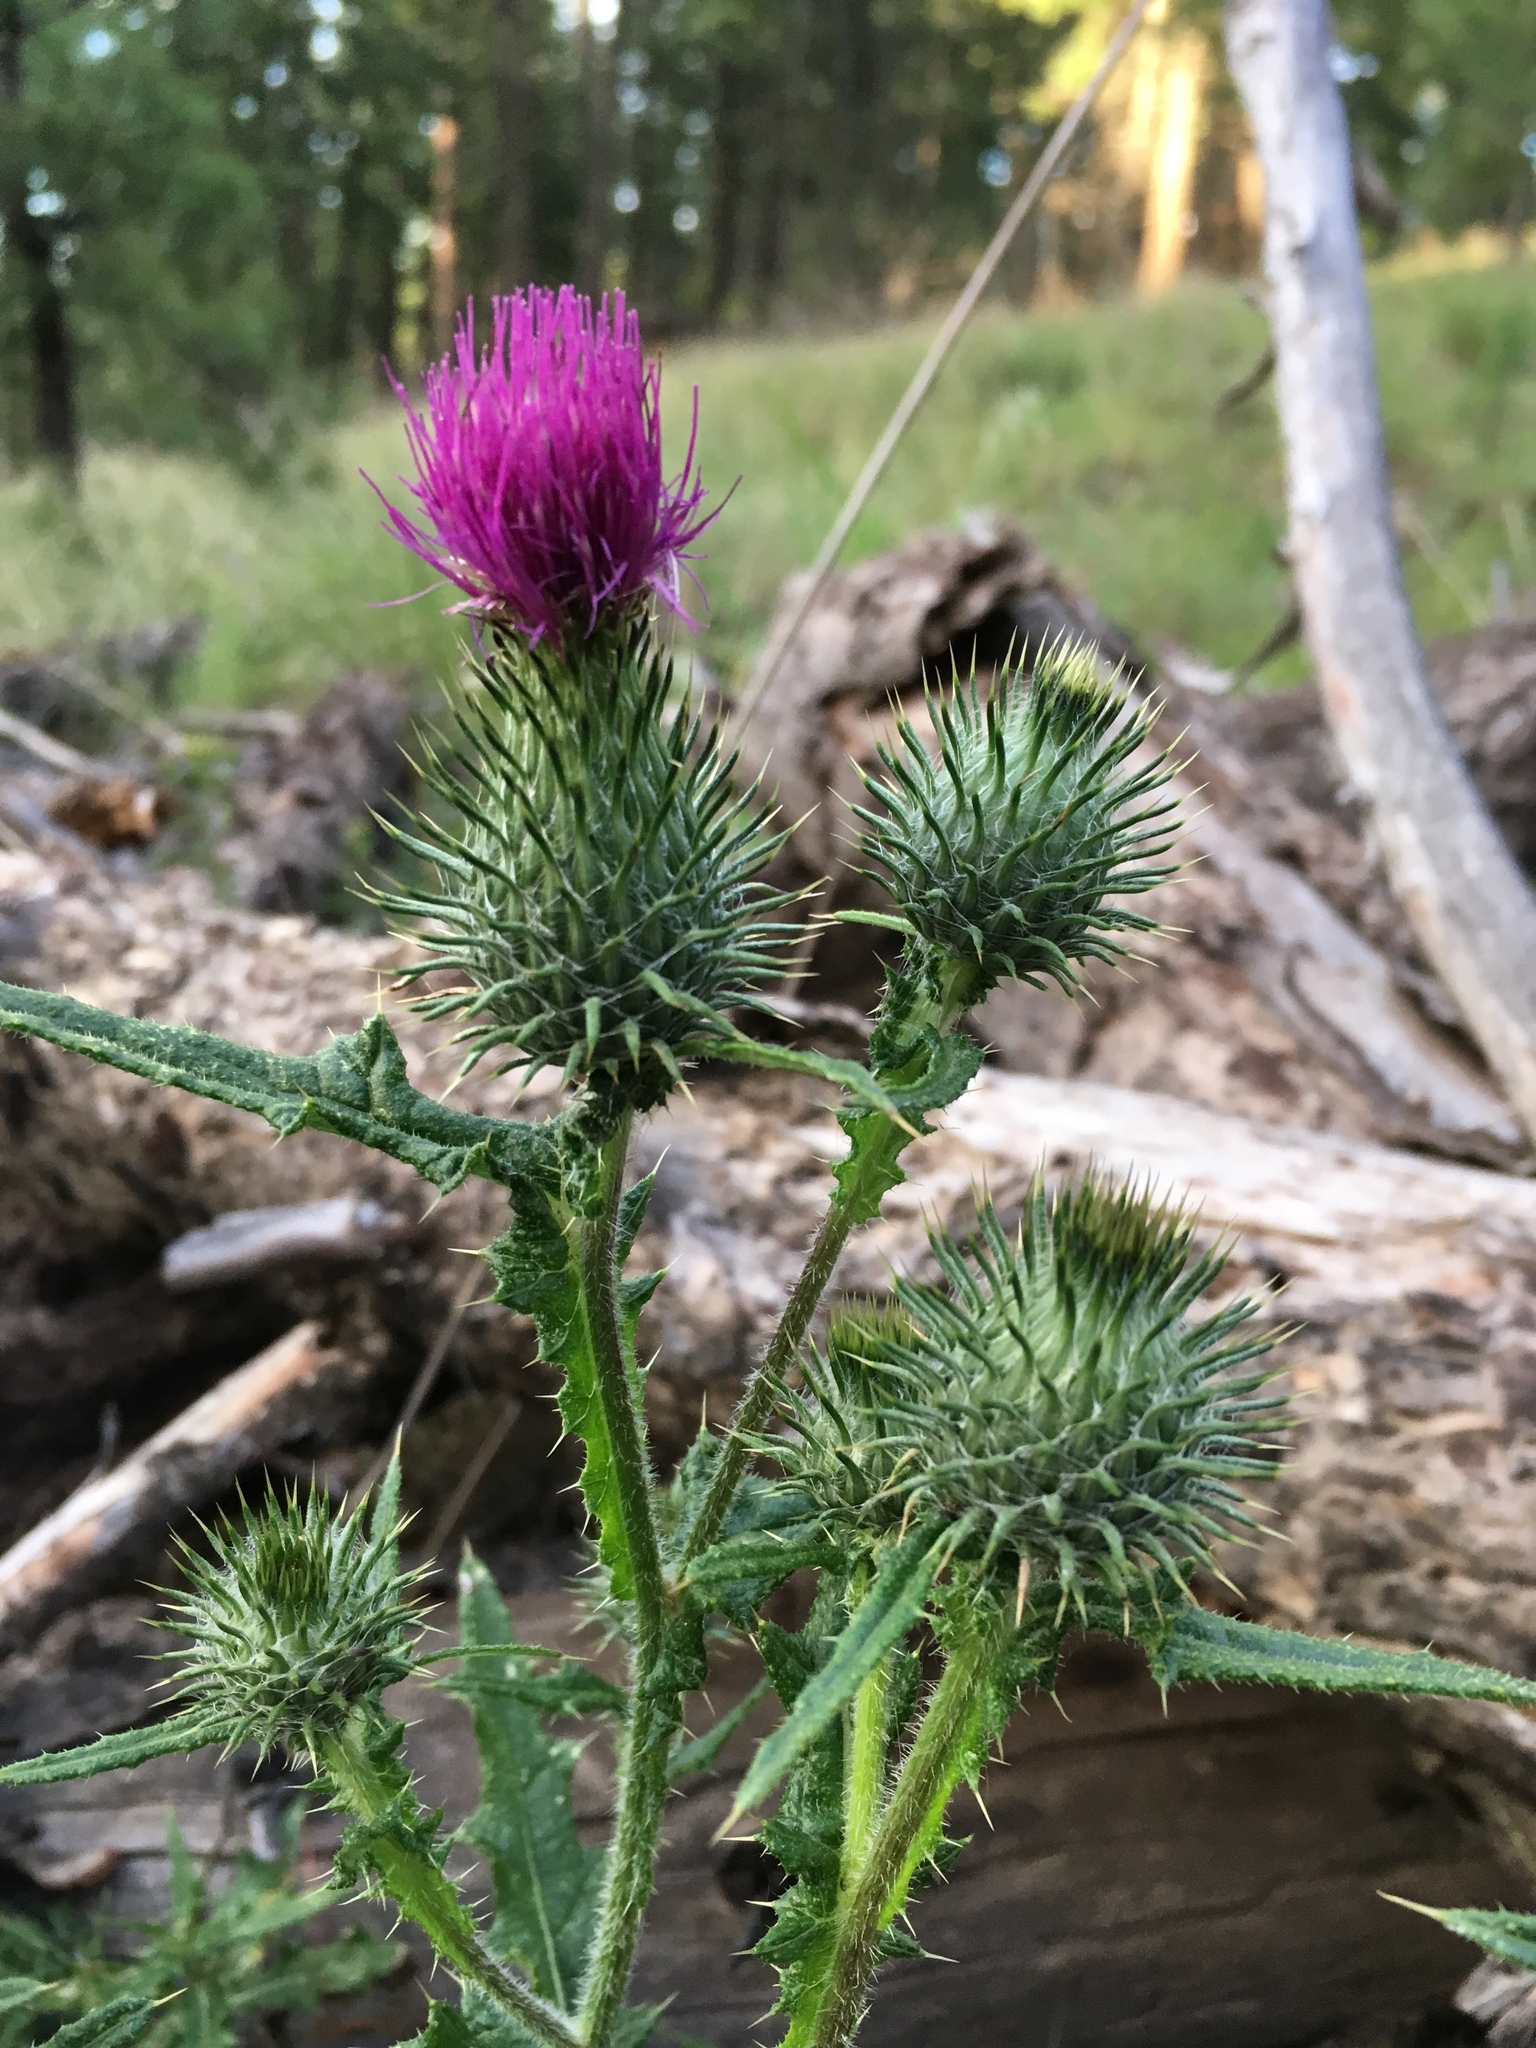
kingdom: Plantae
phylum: Tracheophyta
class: Magnoliopsida
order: Asterales
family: Asteraceae
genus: Cirsium
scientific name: Cirsium vulgare
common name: Bull thistle
